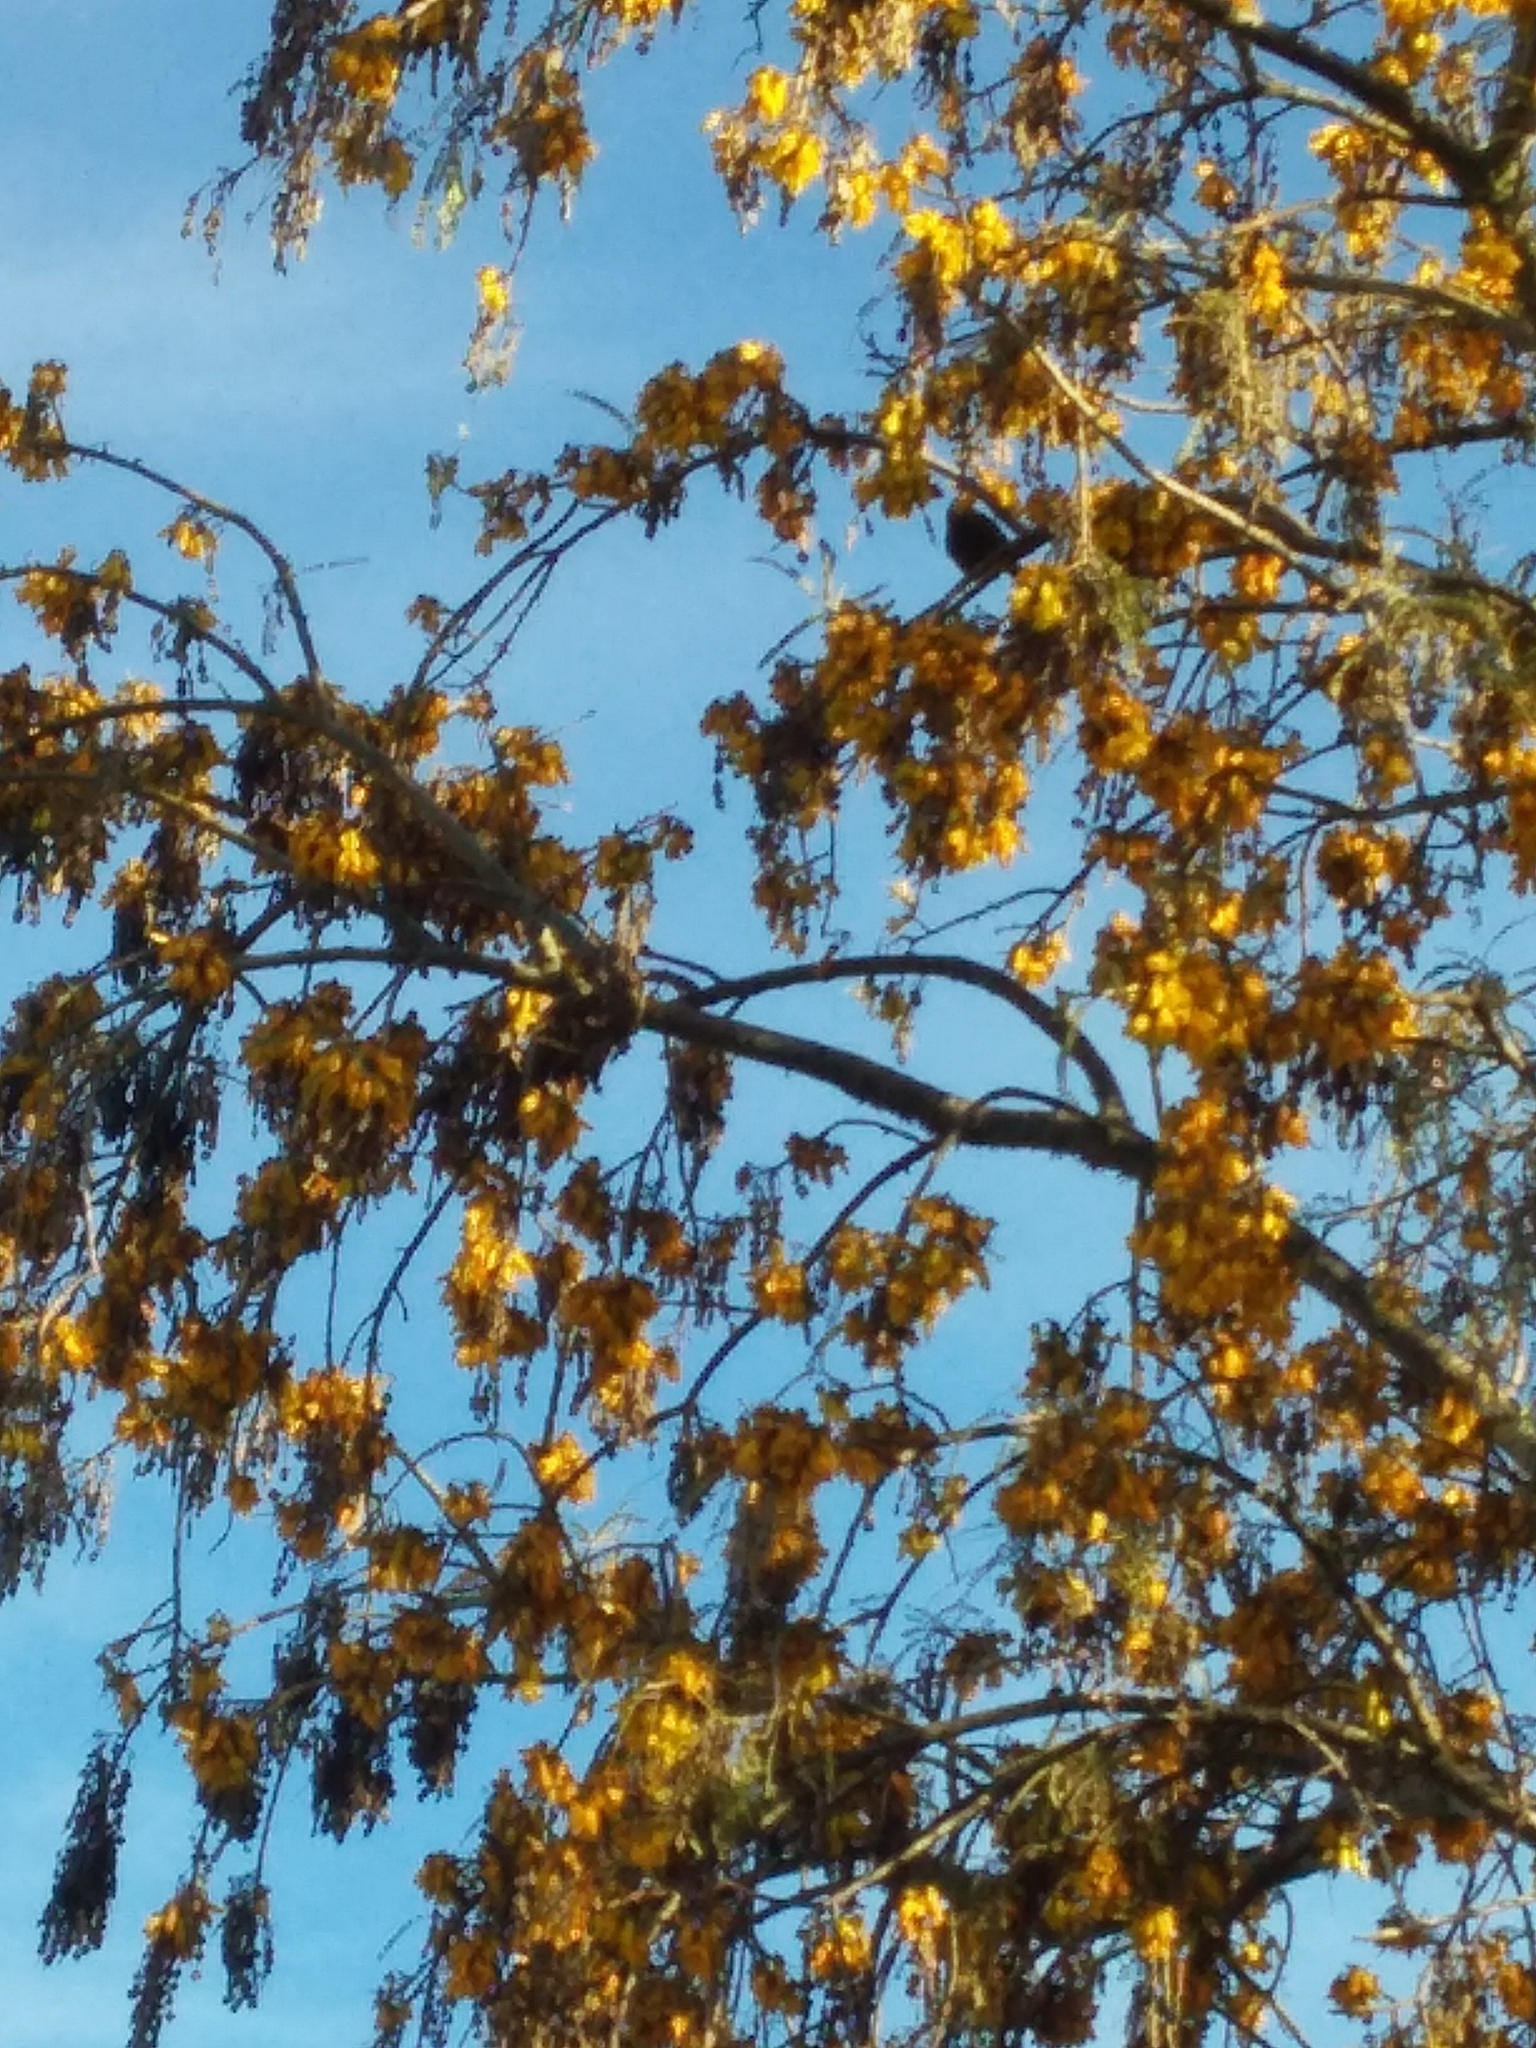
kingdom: Animalia
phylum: Chordata
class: Aves
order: Passeriformes
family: Meliphagidae
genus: Anthornis
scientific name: Anthornis melanura
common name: New zealand bellbird
